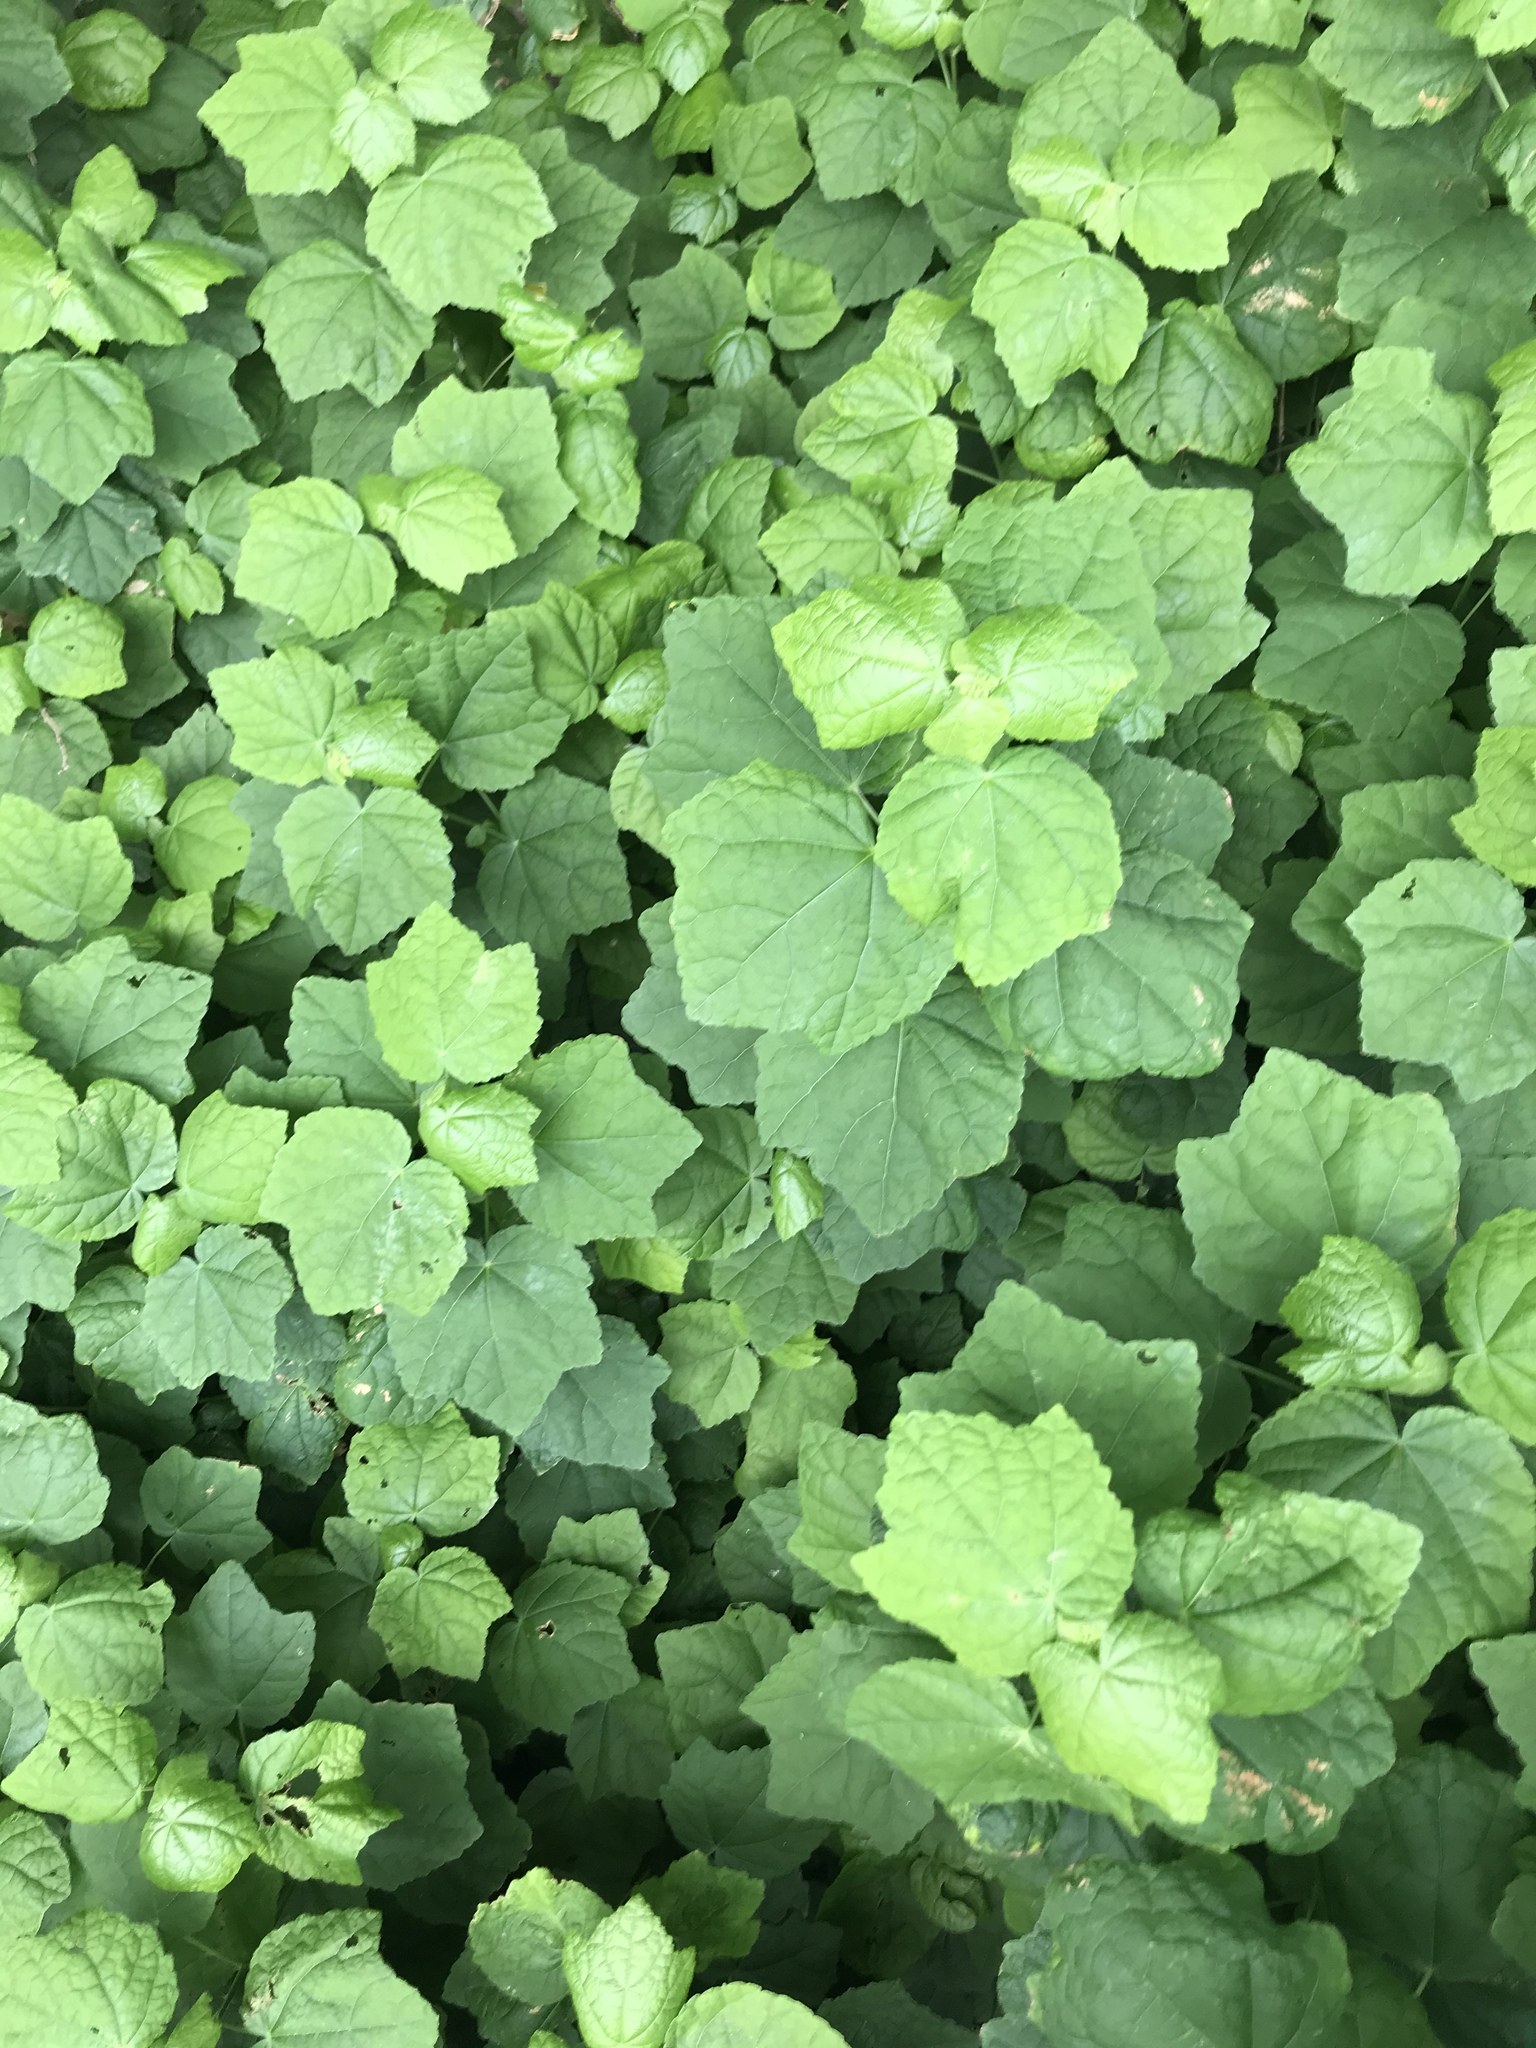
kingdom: Plantae
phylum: Tracheophyta
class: Magnoliopsida
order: Malvales
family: Malvaceae
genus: Malvaviscus
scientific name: Malvaviscus arboreus
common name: Wax mallow
